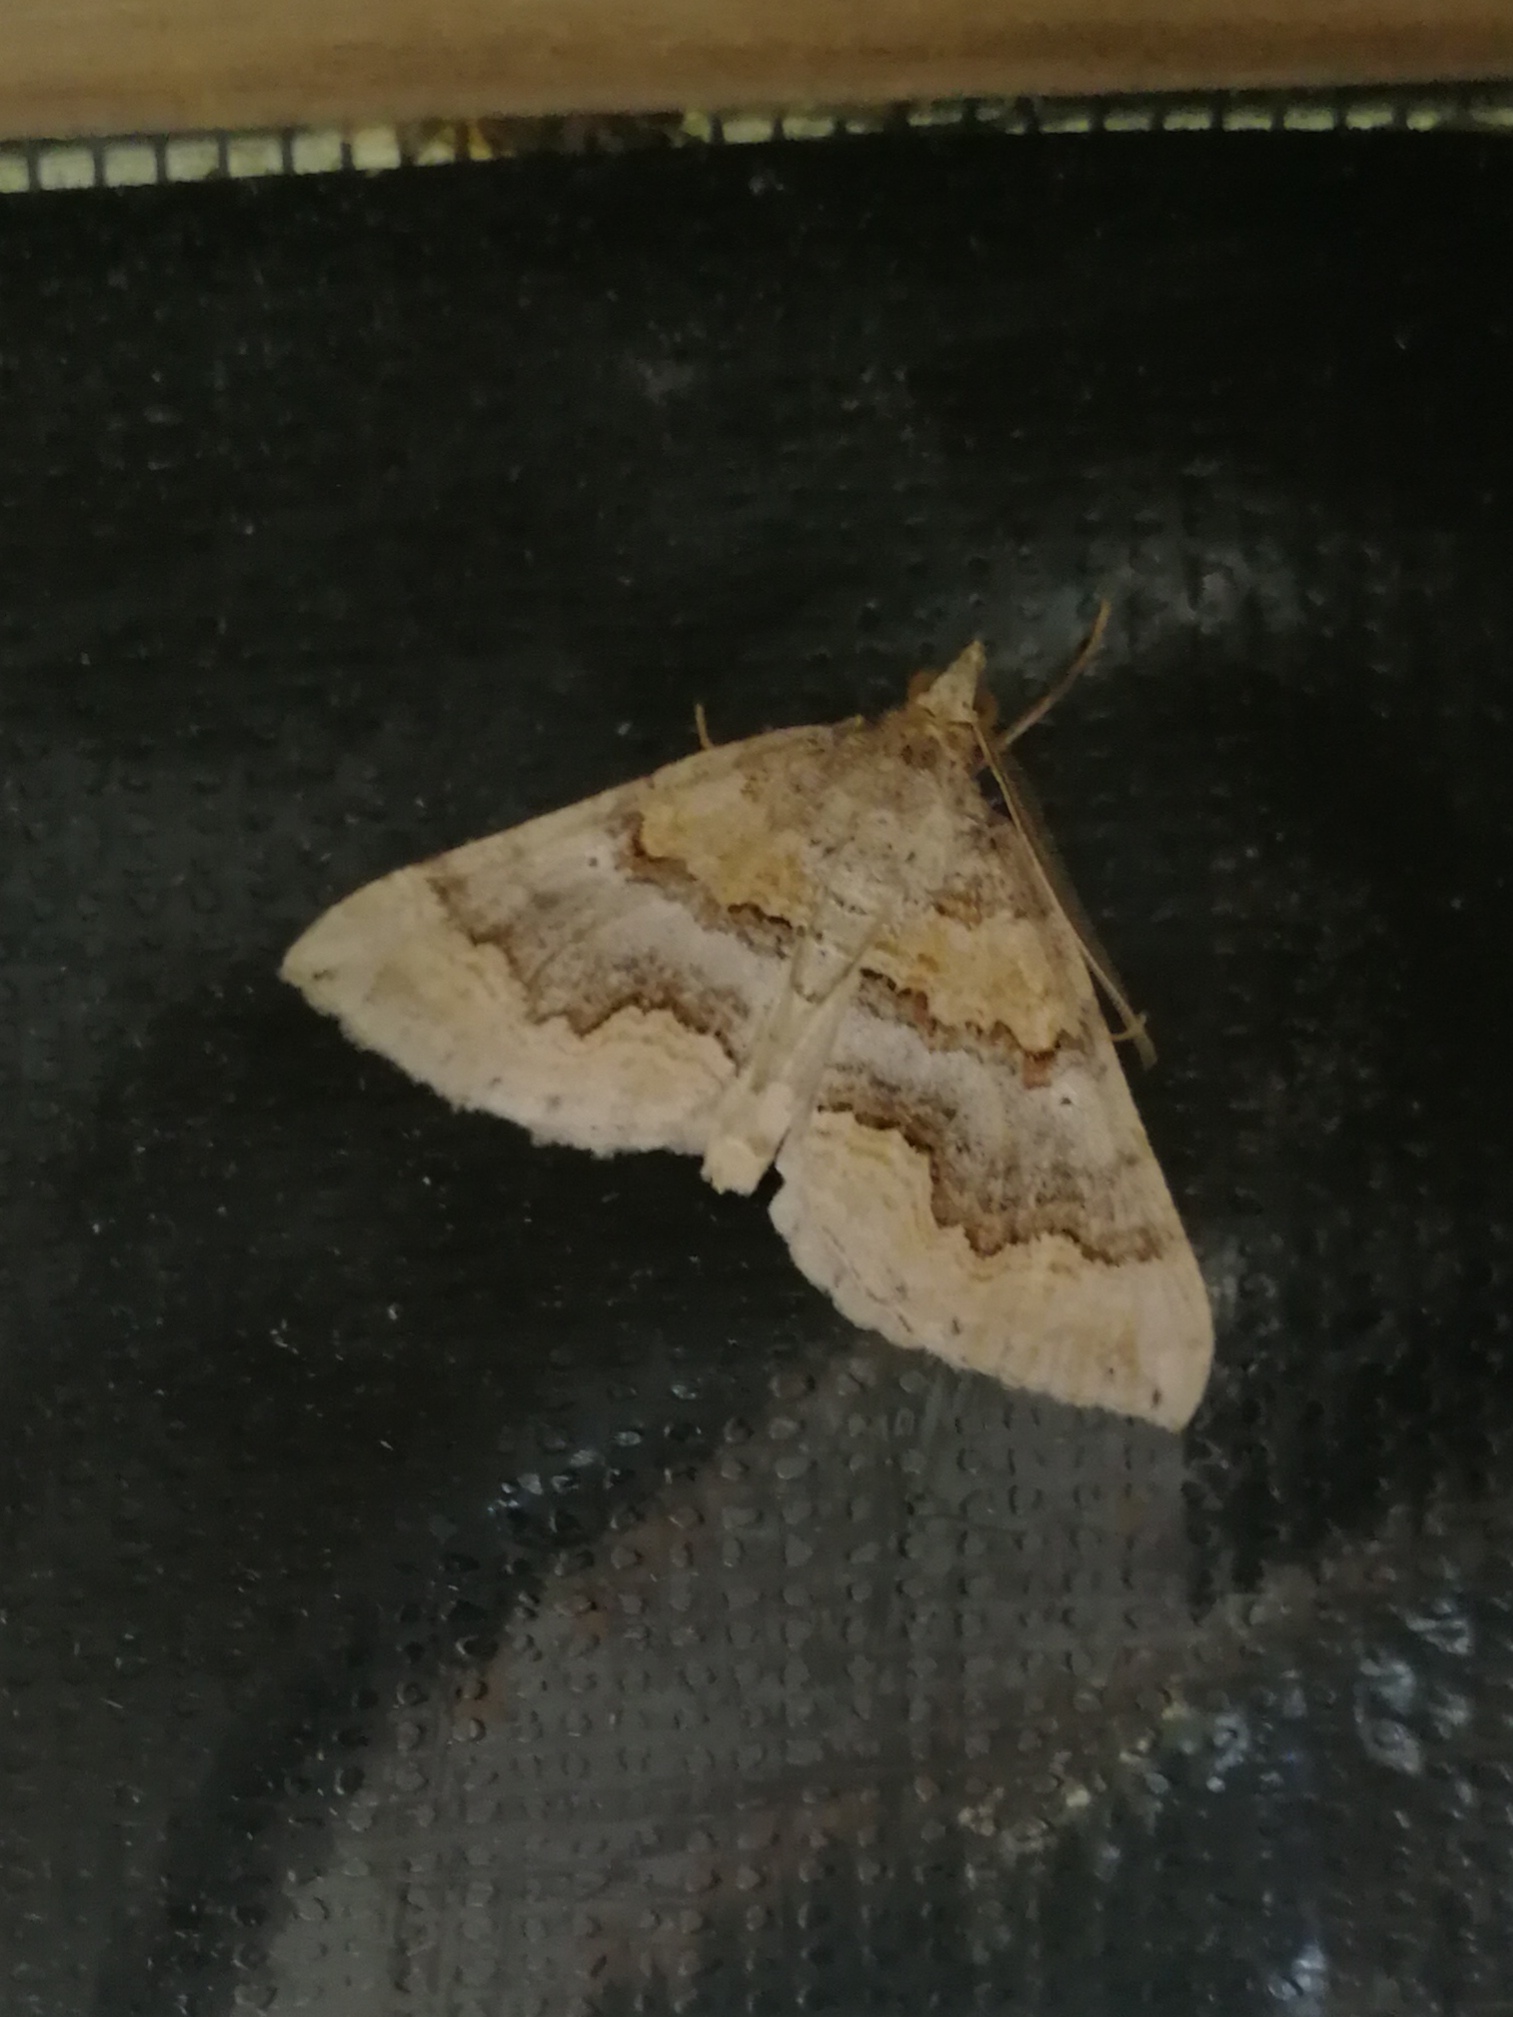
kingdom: Animalia
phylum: Arthropoda
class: Insecta
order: Lepidoptera
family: Geometridae
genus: Scotopteryx
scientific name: Scotopteryx coelinaria
